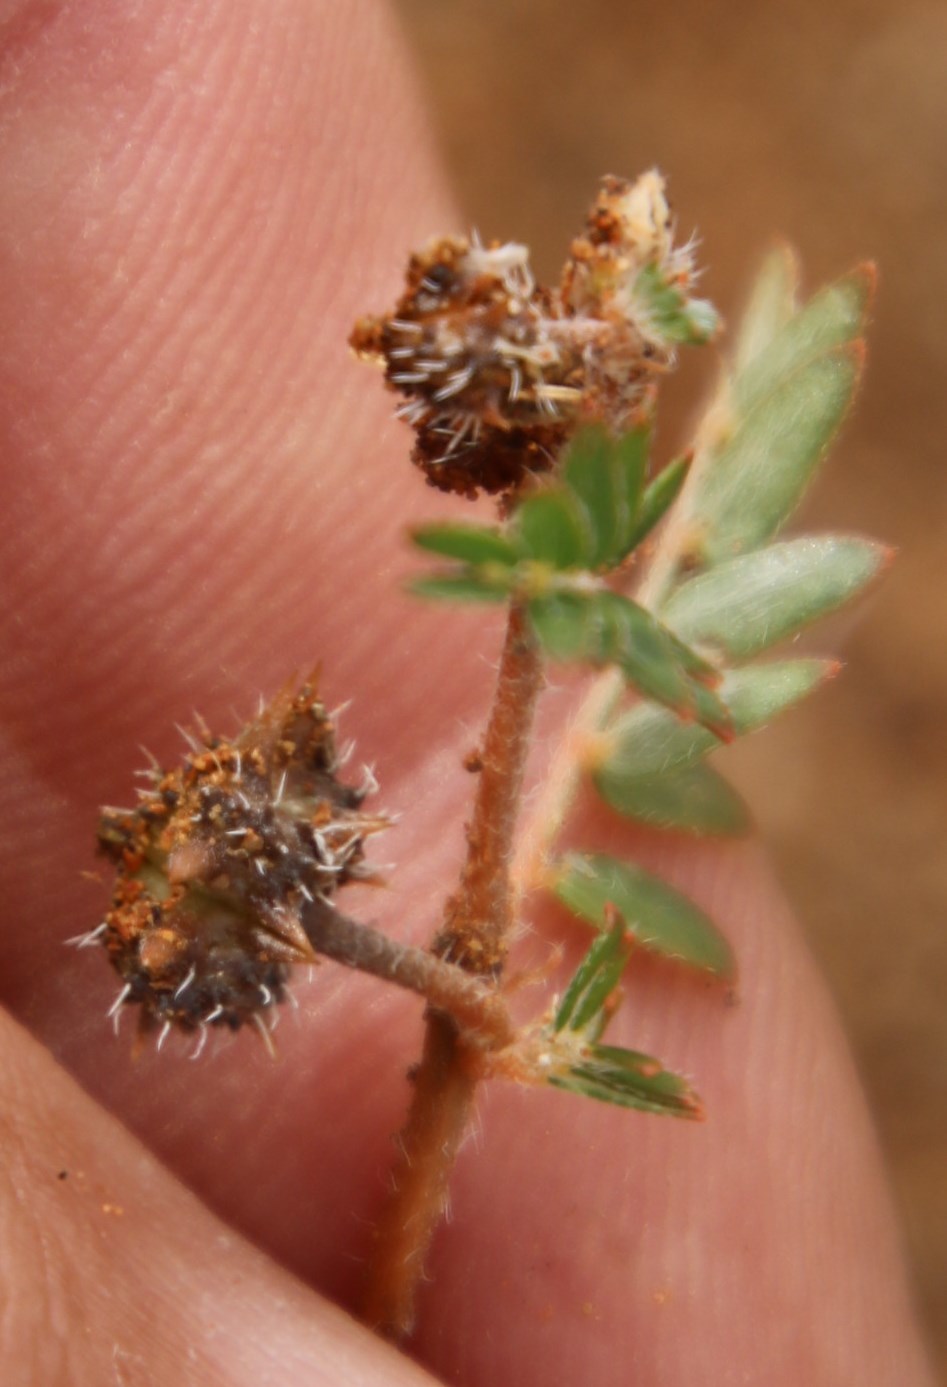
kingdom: Plantae
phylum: Tracheophyta
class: Magnoliopsida
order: Zygophyllales
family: Zygophyllaceae
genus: Tribulus
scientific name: Tribulus terrestris
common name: Puncturevine
